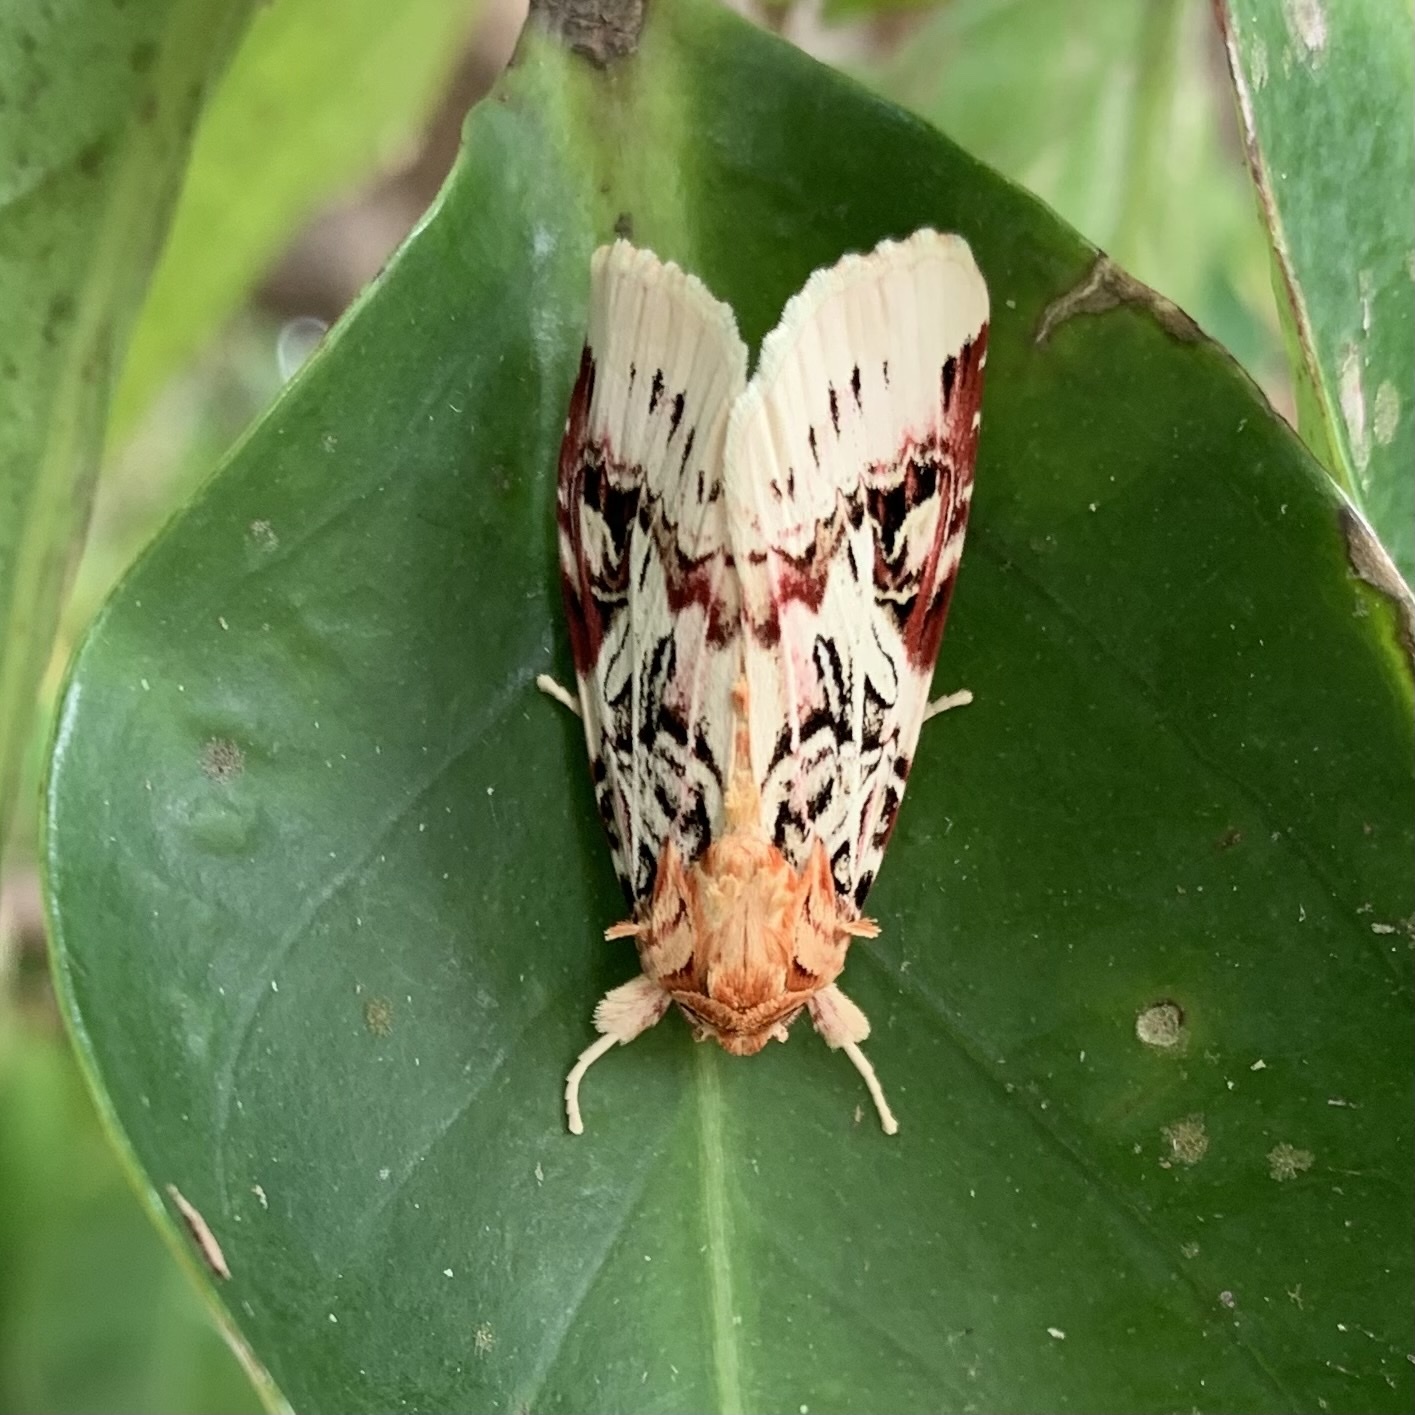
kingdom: Animalia
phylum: Arthropoda
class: Insecta
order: Lepidoptera
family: Noctuidae
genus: Spodoptera
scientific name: Spodoptera picta
